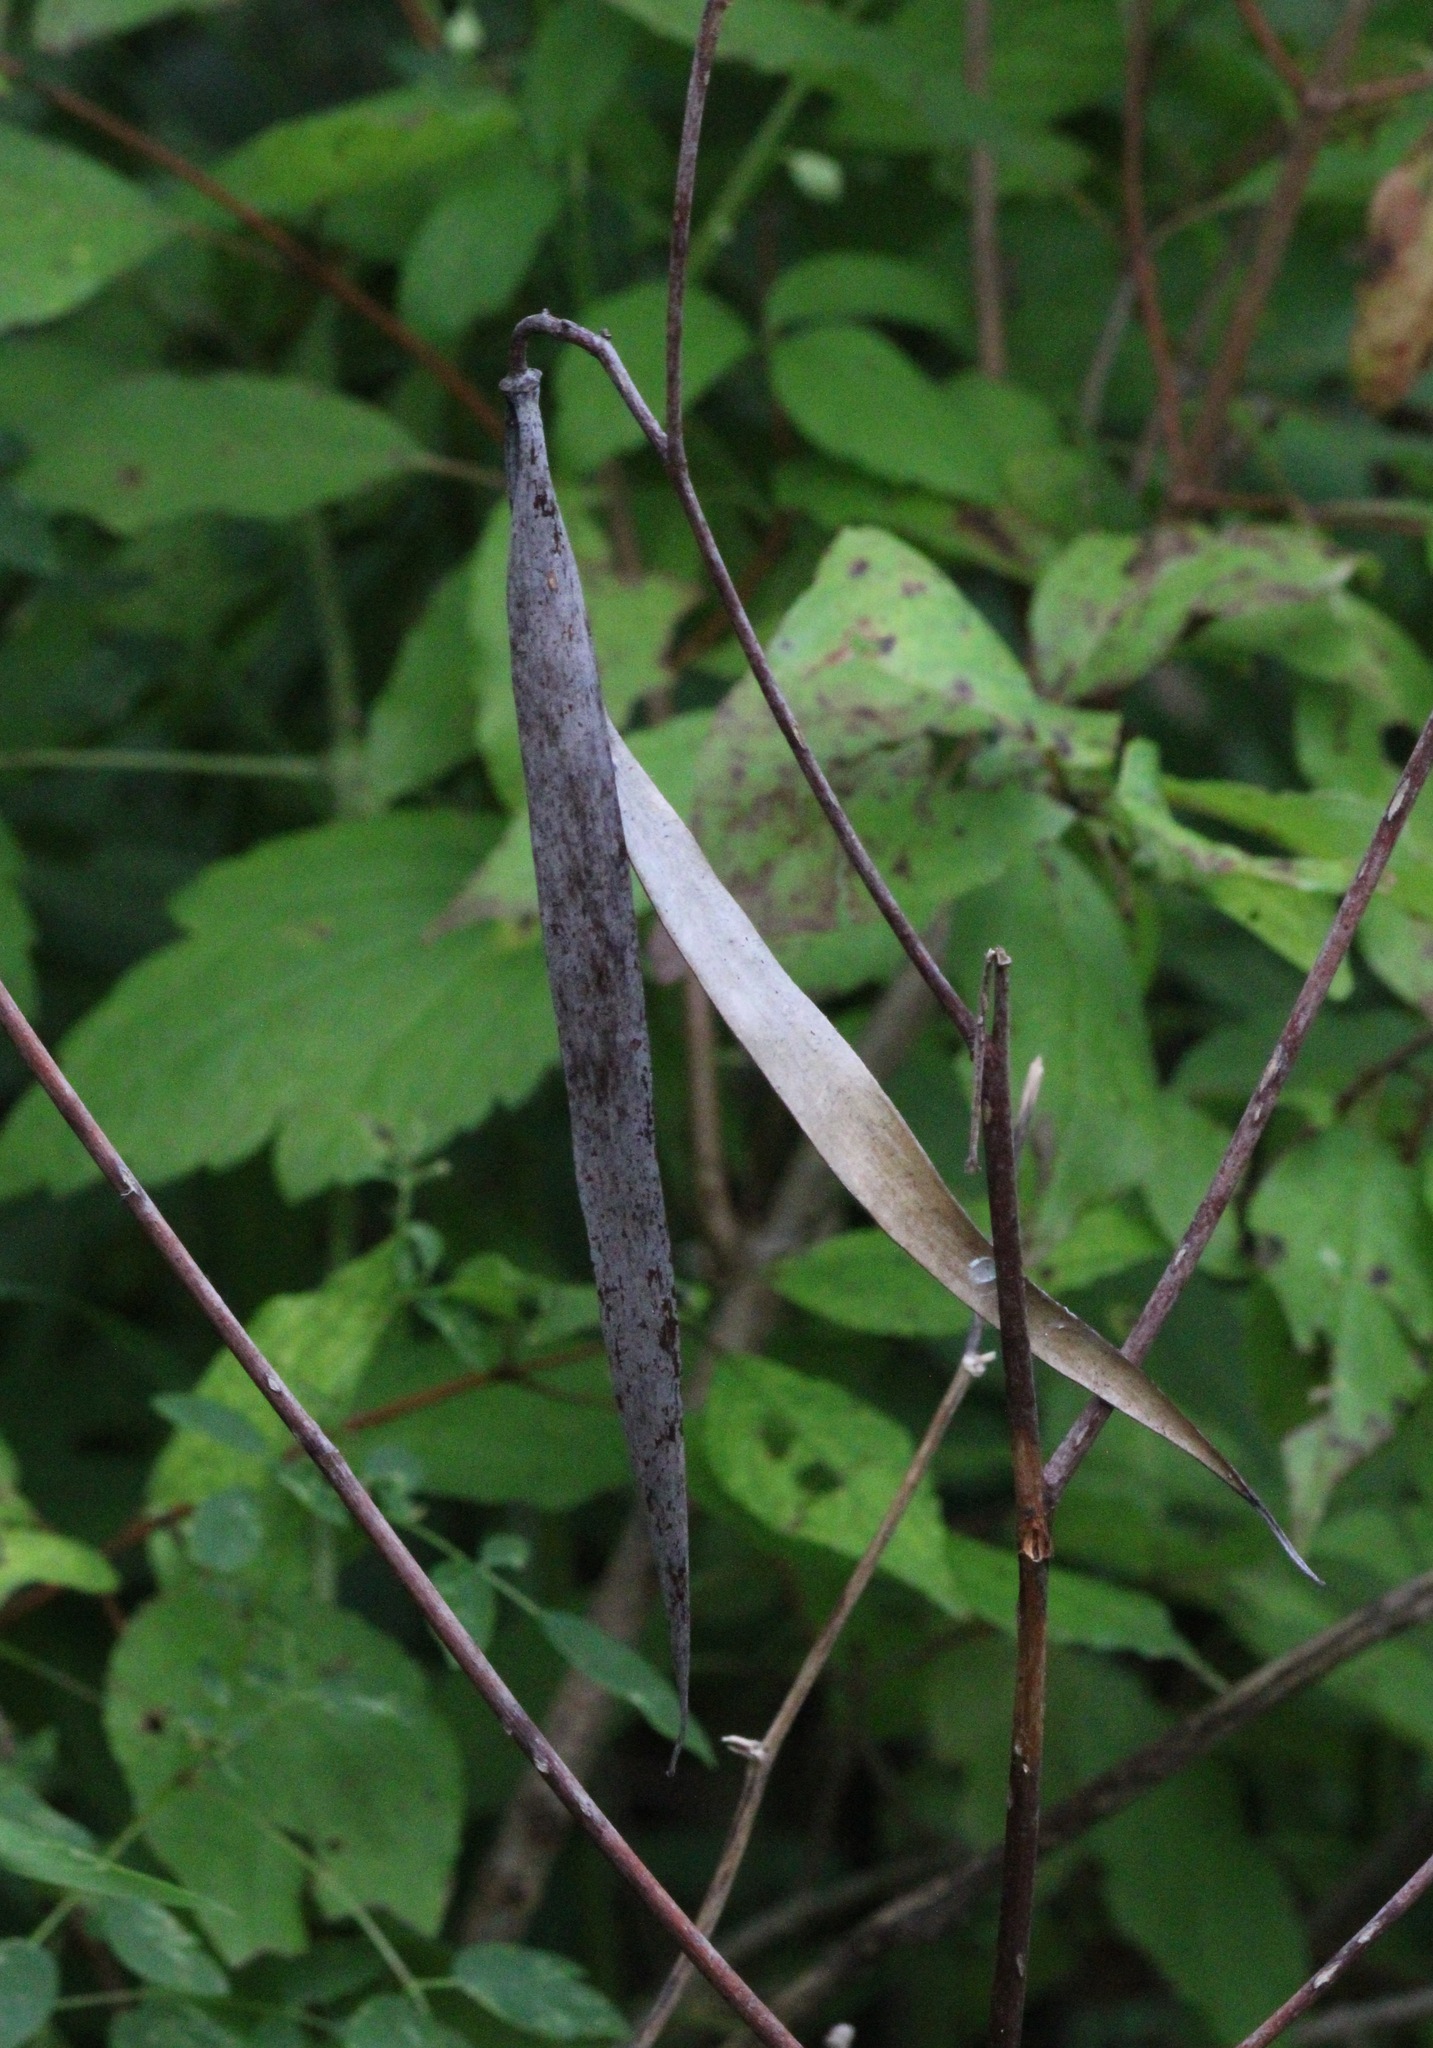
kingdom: Plantae
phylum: Tracheophyta
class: Magnoliopsida
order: Gentianales
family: Apocynaceae
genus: Apocynum
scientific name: Apocynum cannabinum
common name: Hemp dogbane
